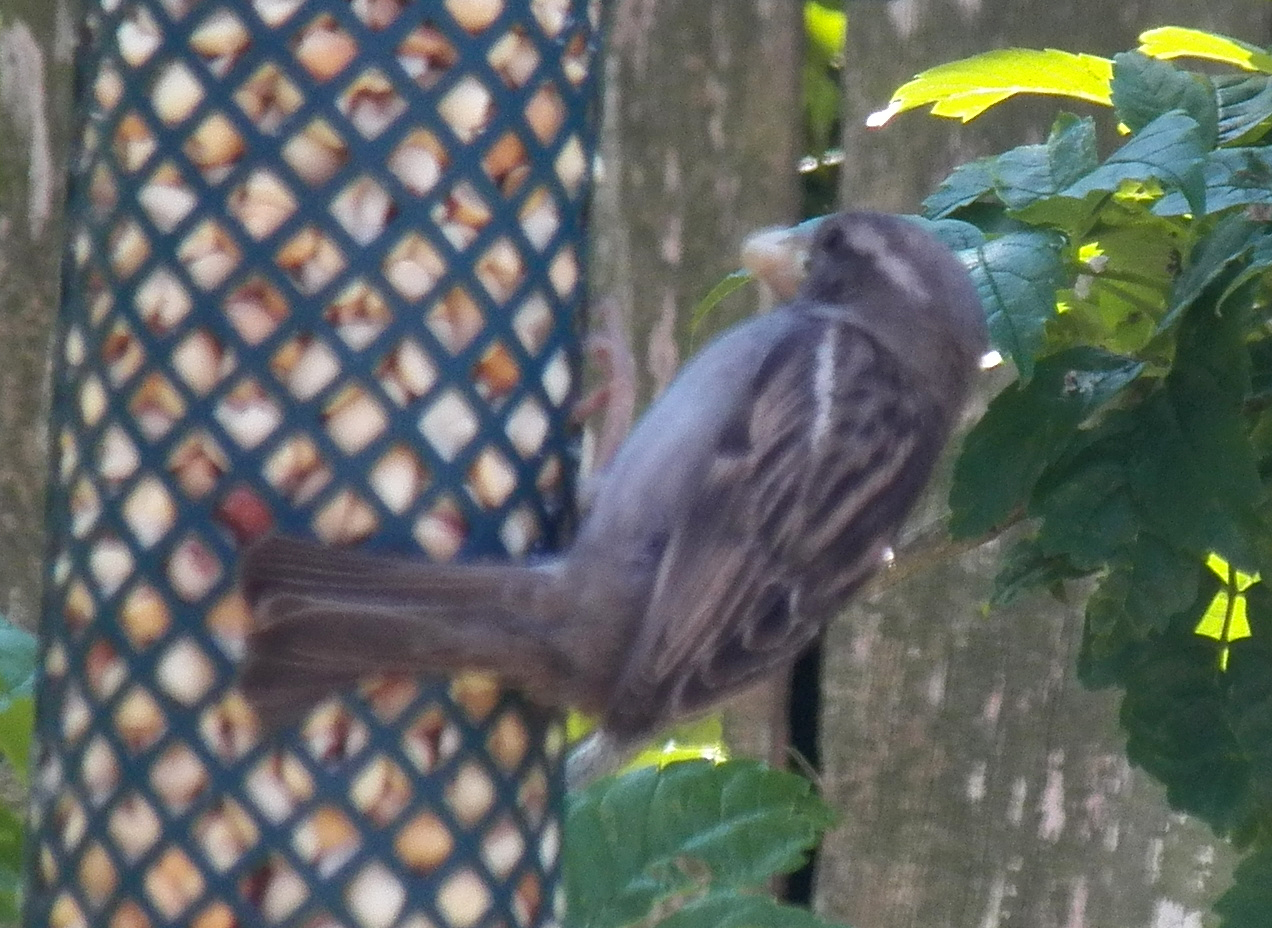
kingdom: Animalia
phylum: Chordata
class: Aves
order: Passeriformes
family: Passeridae
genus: Passer
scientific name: Passer domesticus
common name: House sparrow
